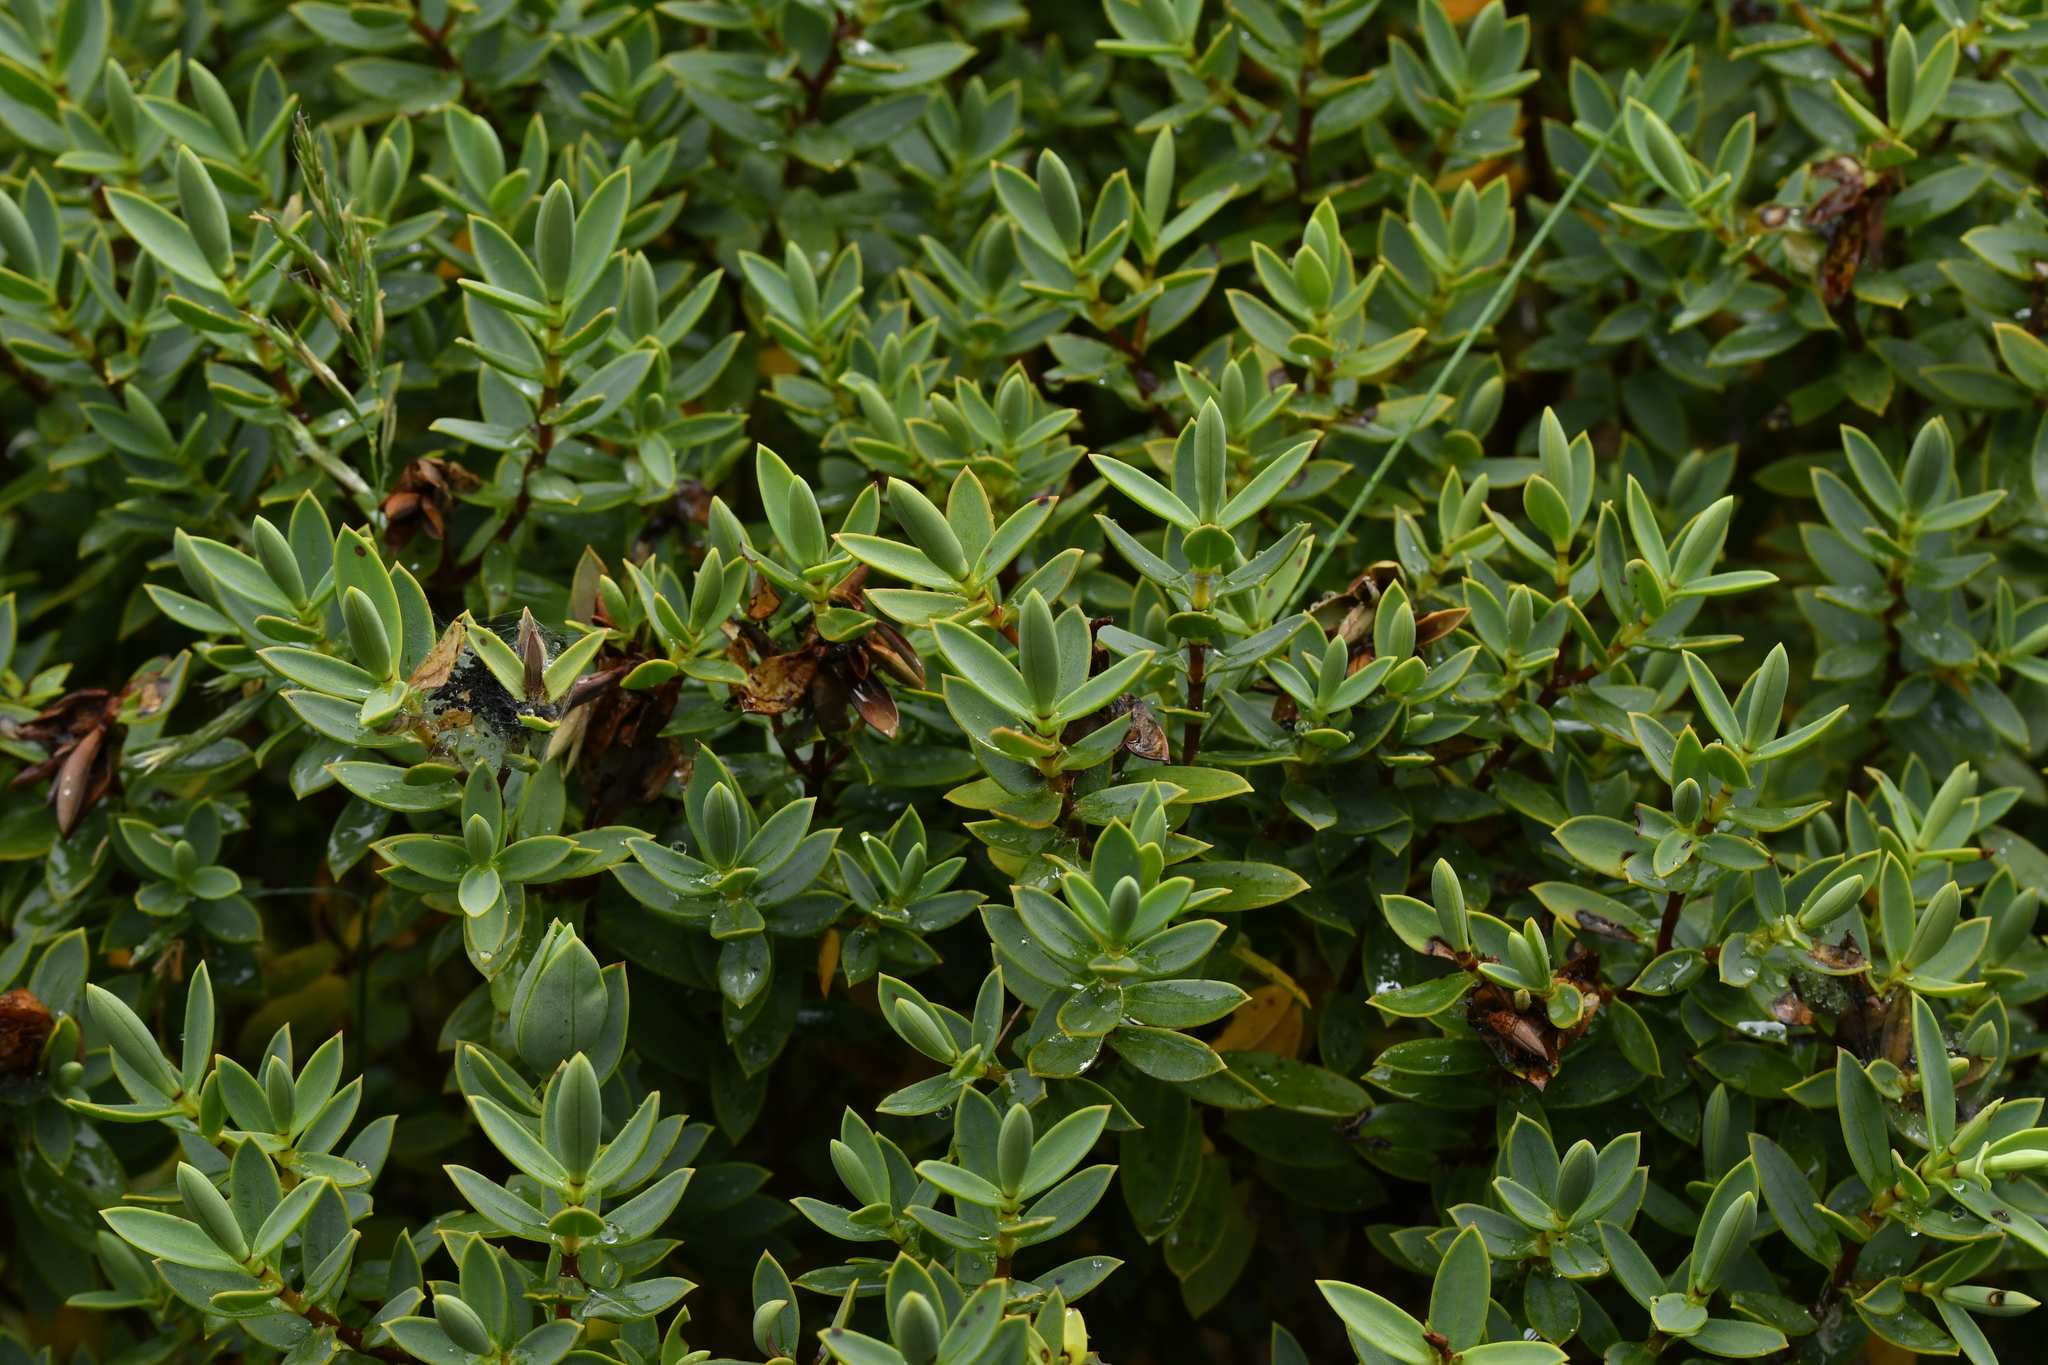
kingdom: Plantae
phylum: Tracheophyta
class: Magnoliopsida
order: Lamiales
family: Plantaginaceae
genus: Veronica
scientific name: Veronica glaucophylla
